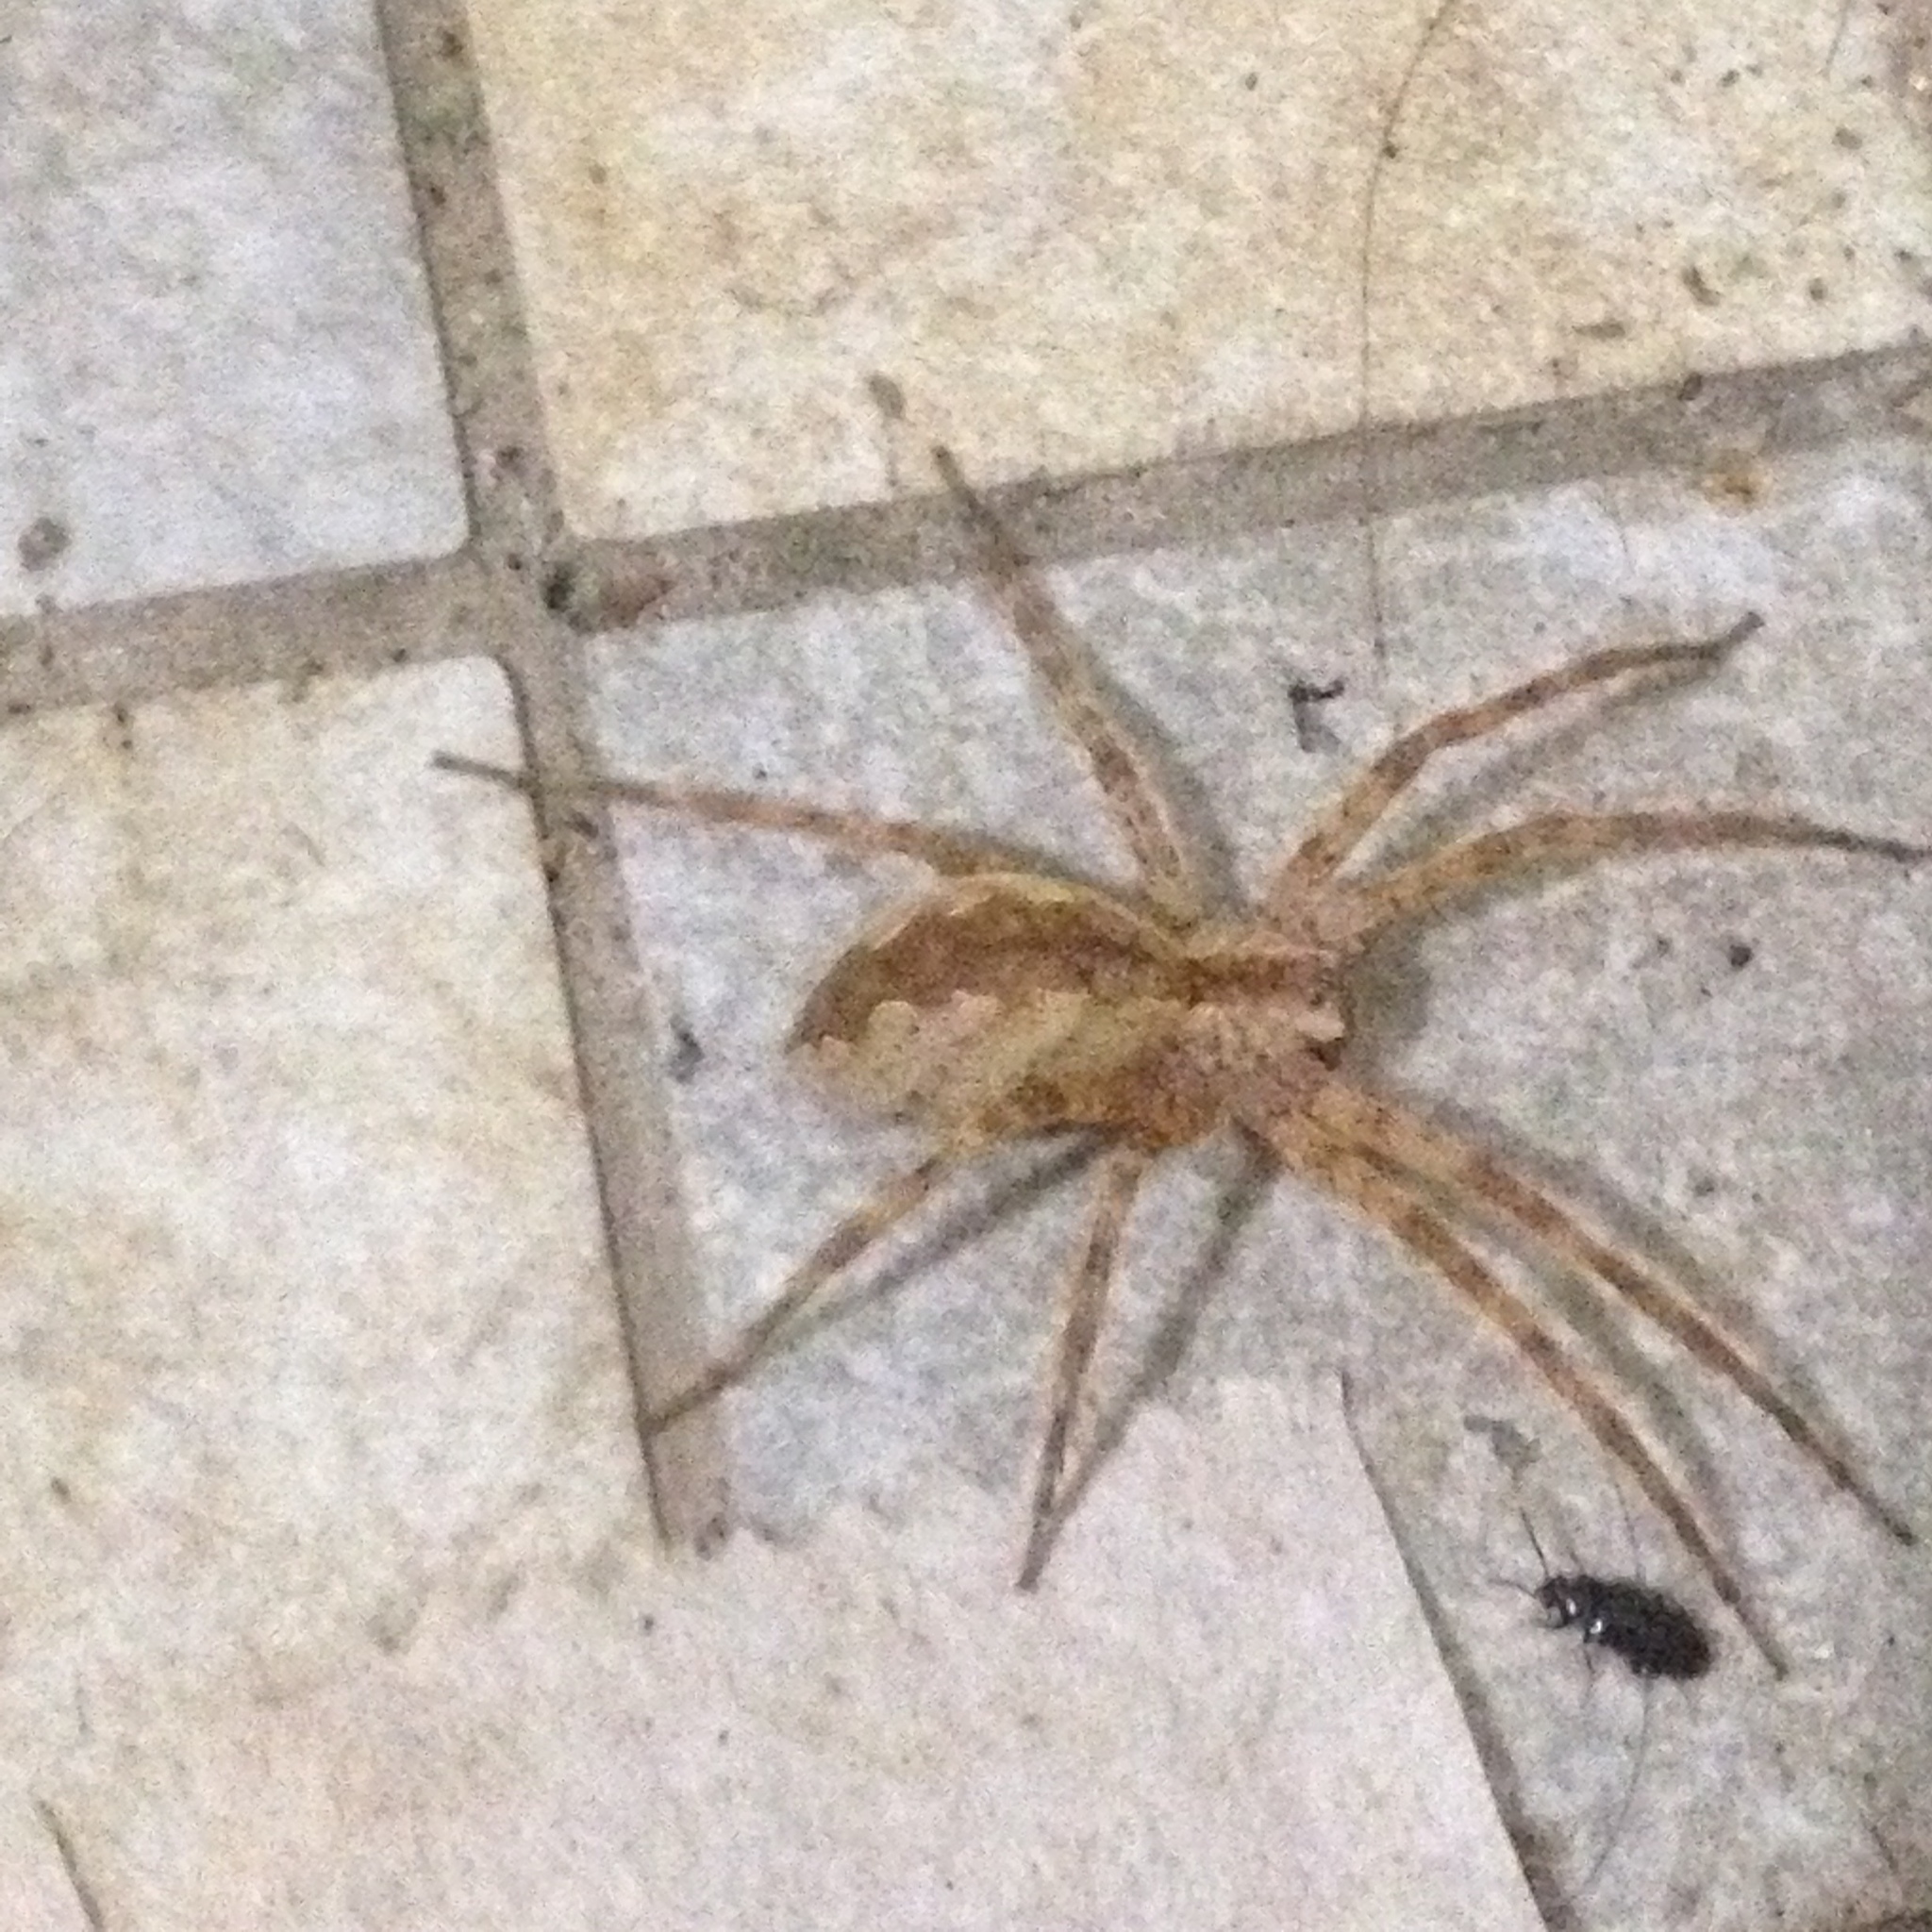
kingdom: Animalia
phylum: Arthropoda
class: Arachnida
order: Araneae
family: Pisauridae
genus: Pisaurina
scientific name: Pisaurina mira
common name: American nursery web spider
